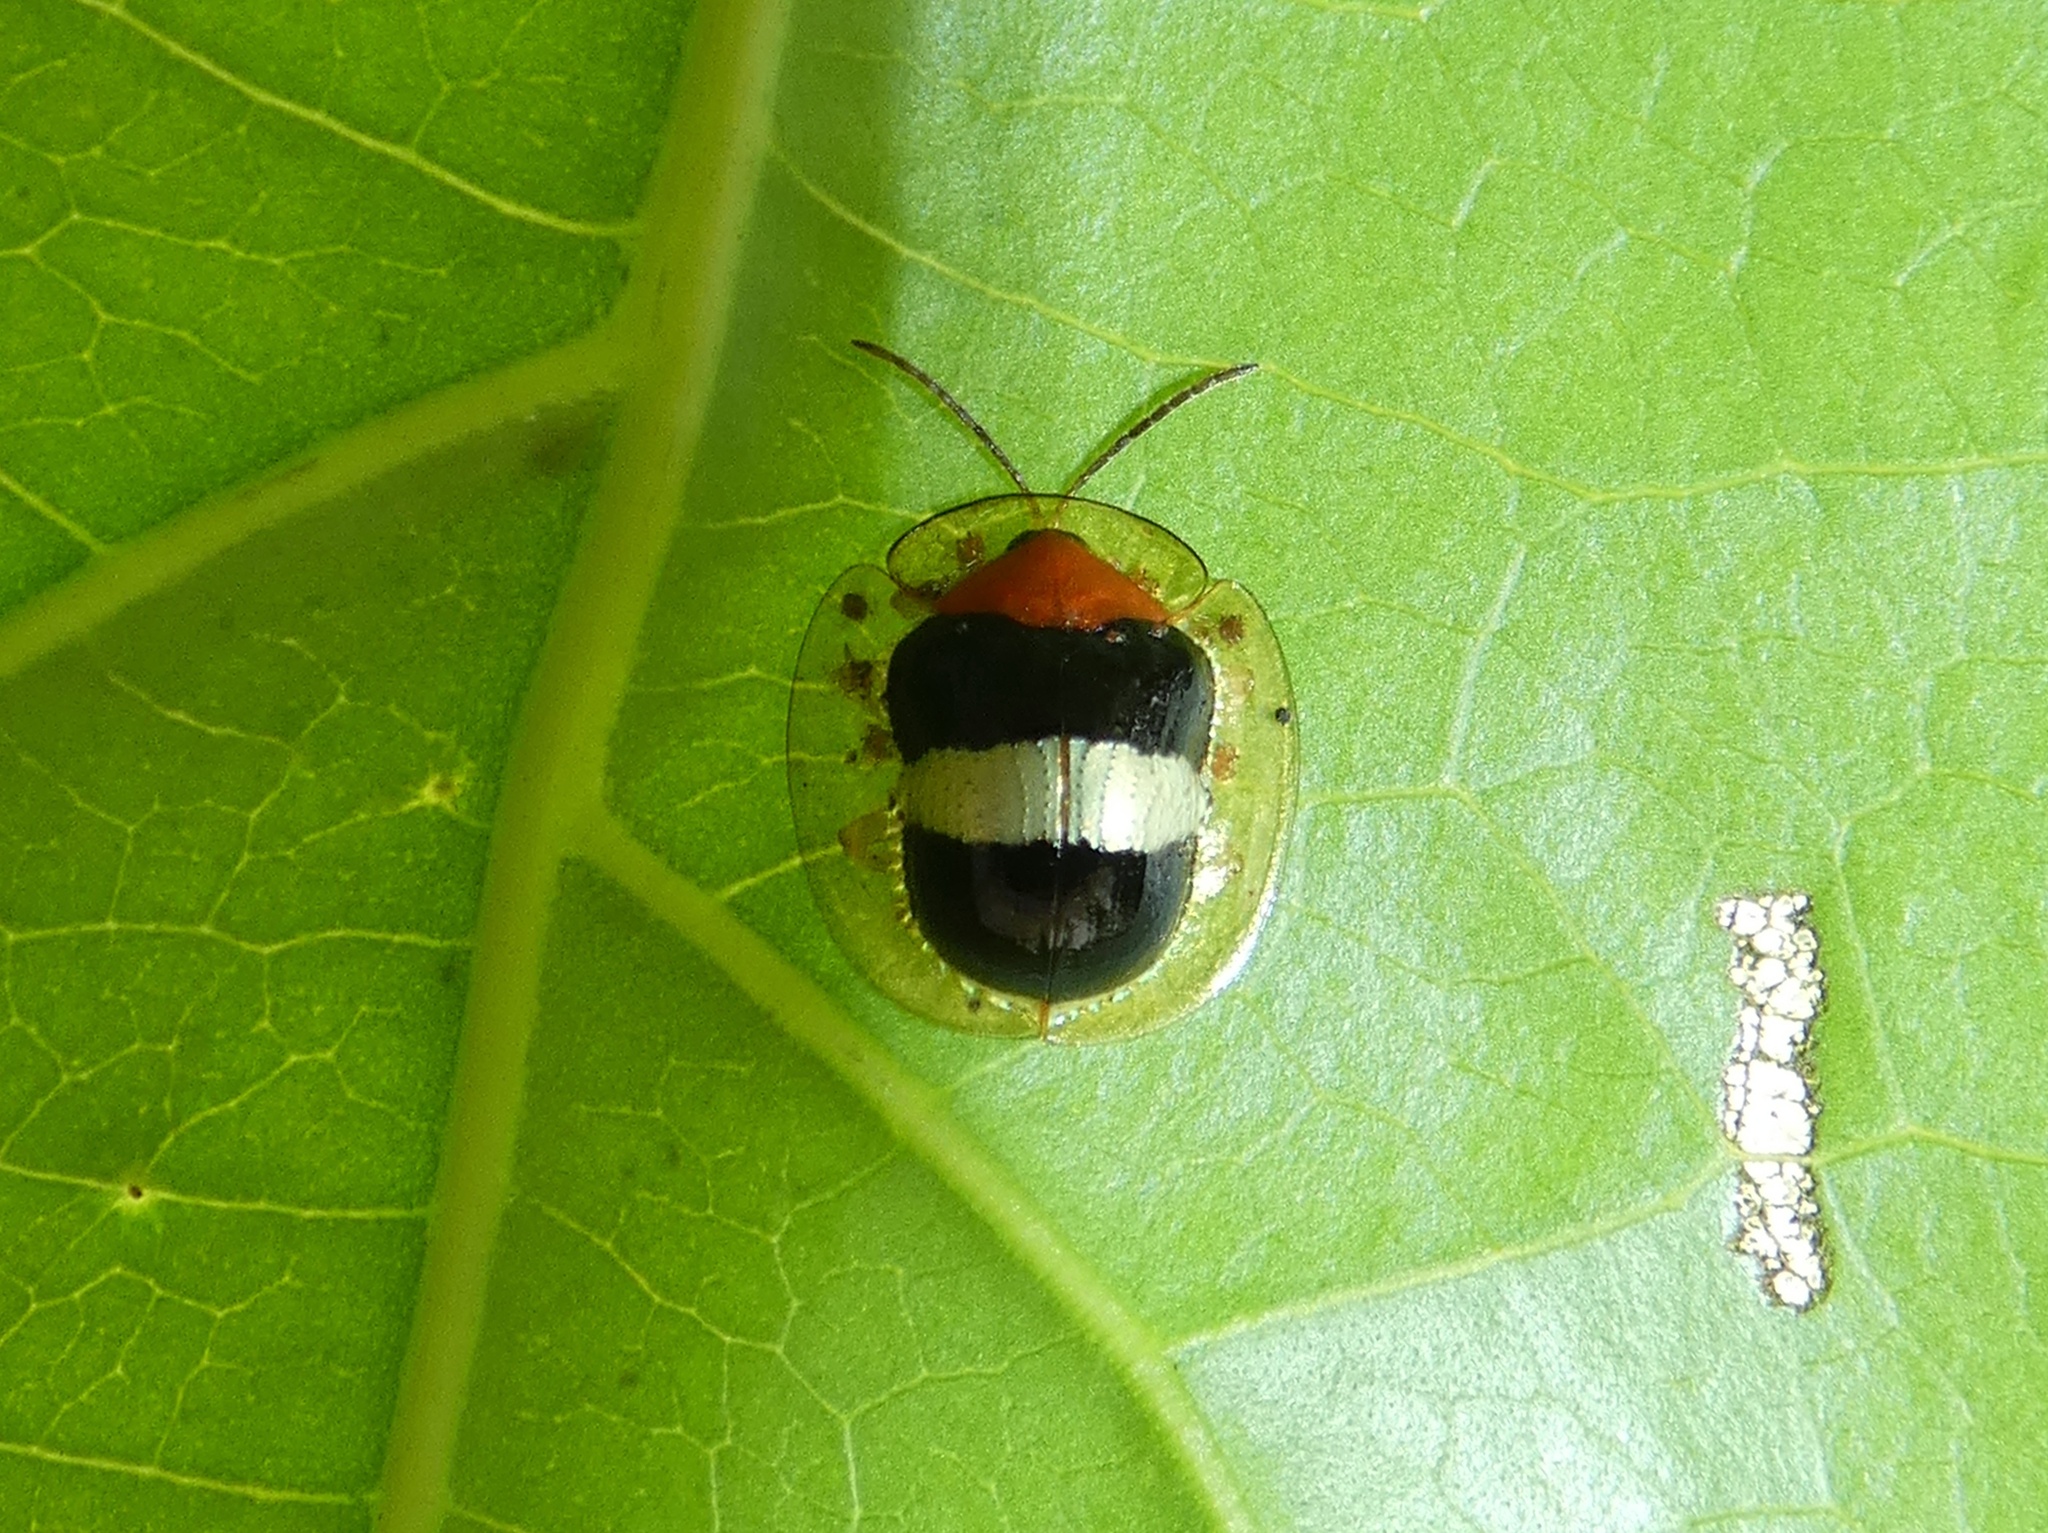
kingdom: Animalia
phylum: Arthropoda
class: Insecta
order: Coleoptera
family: Chrysomelidae
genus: Charidotis
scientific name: Charidotis aurofasciata
